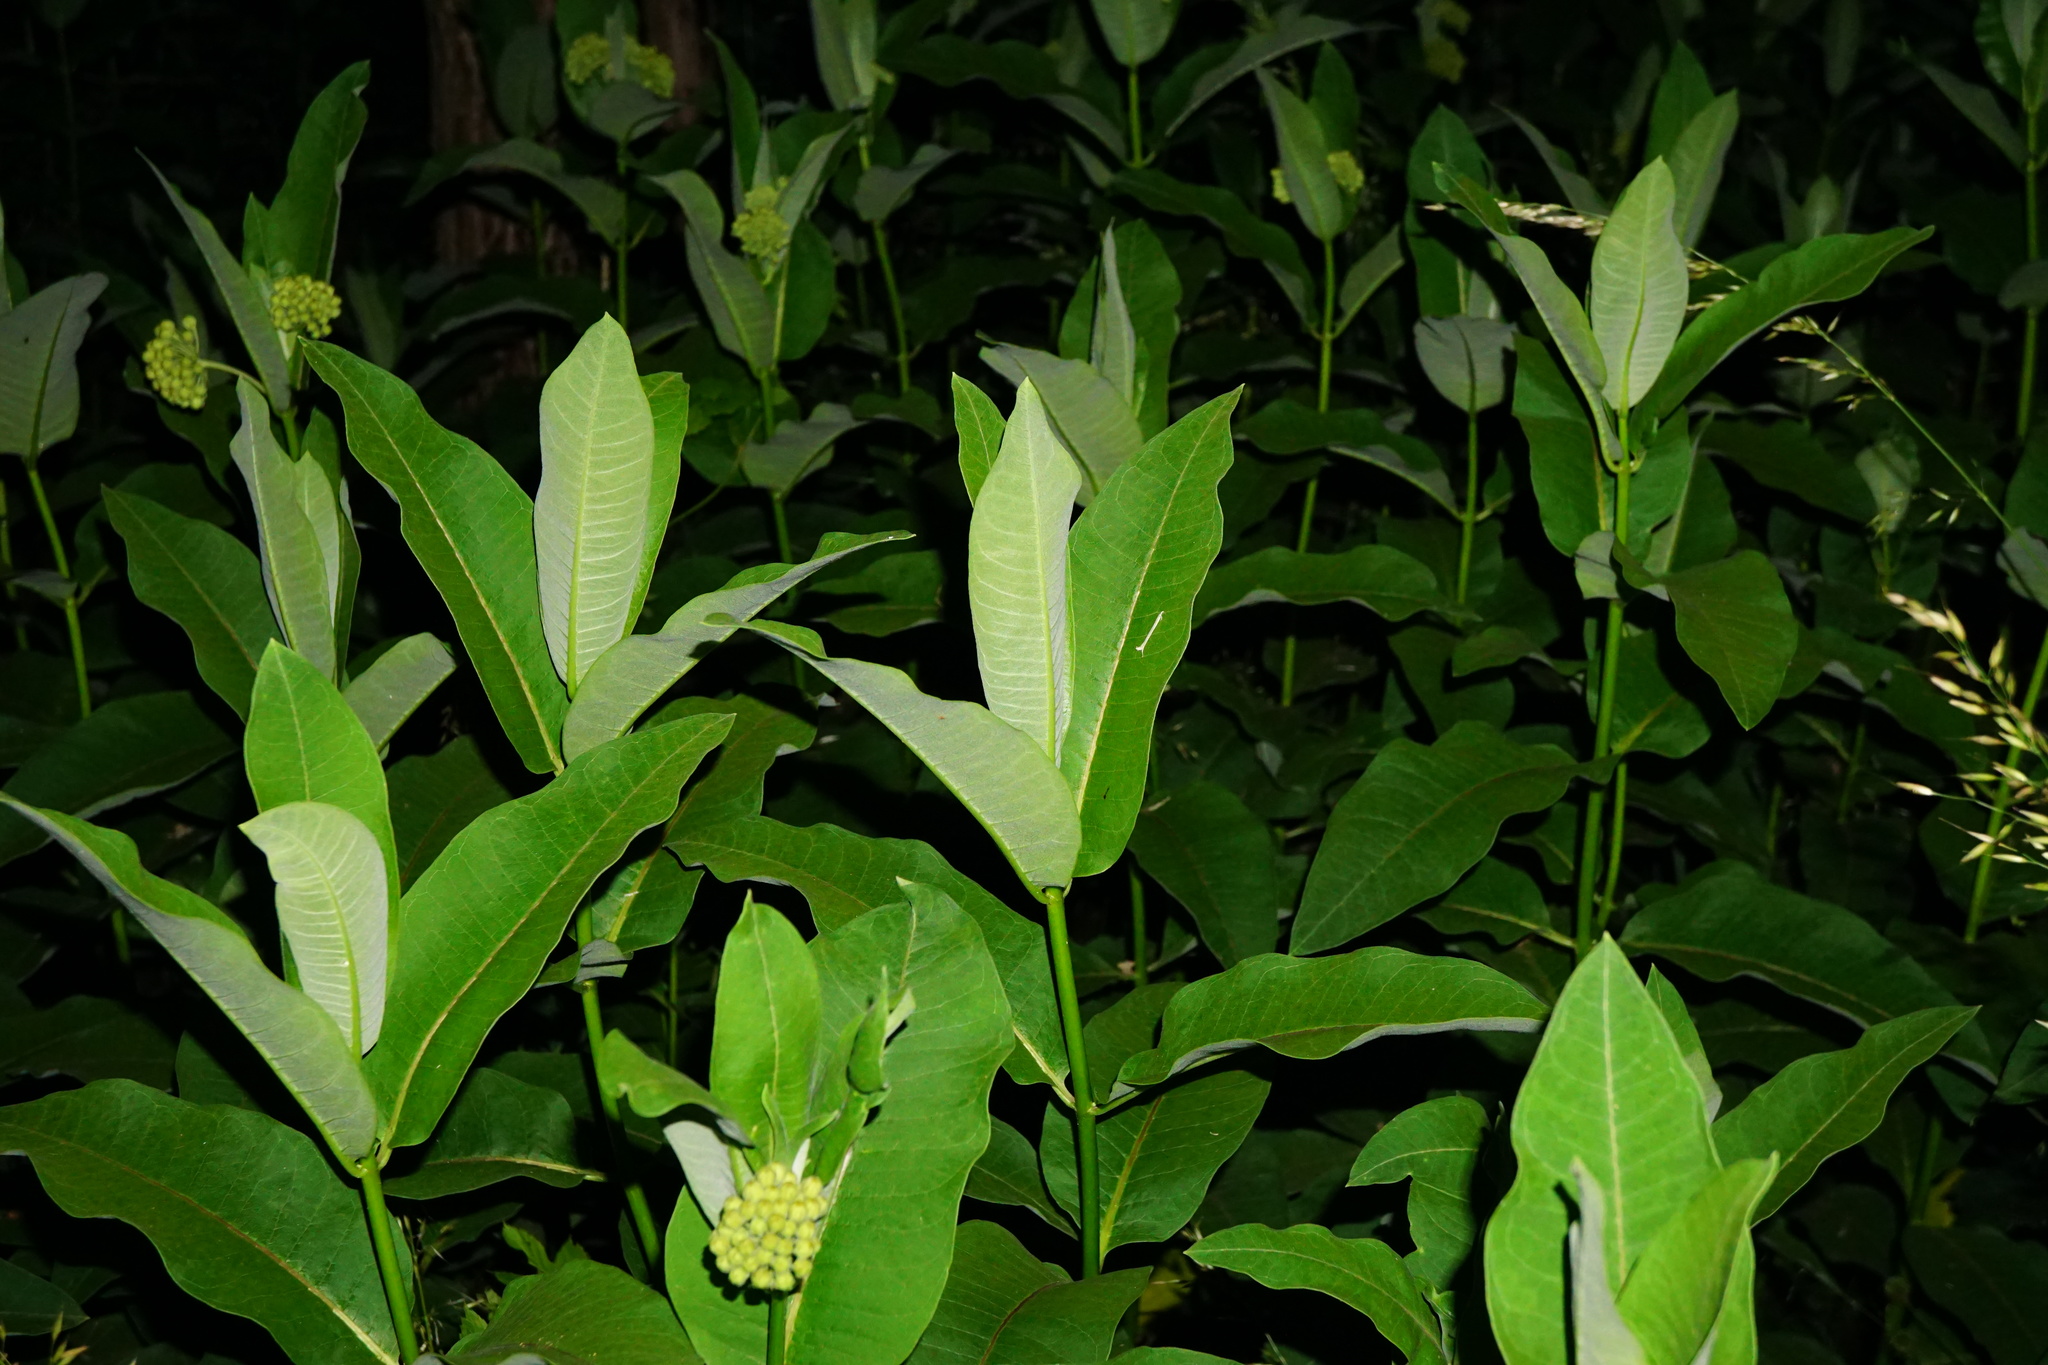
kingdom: Plantae
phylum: Tracheophyta
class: Magnoliopsida
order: Gentianales
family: Apocynaceae
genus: Asclepias
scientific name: Asclepias syriaca
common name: Common milkweed
